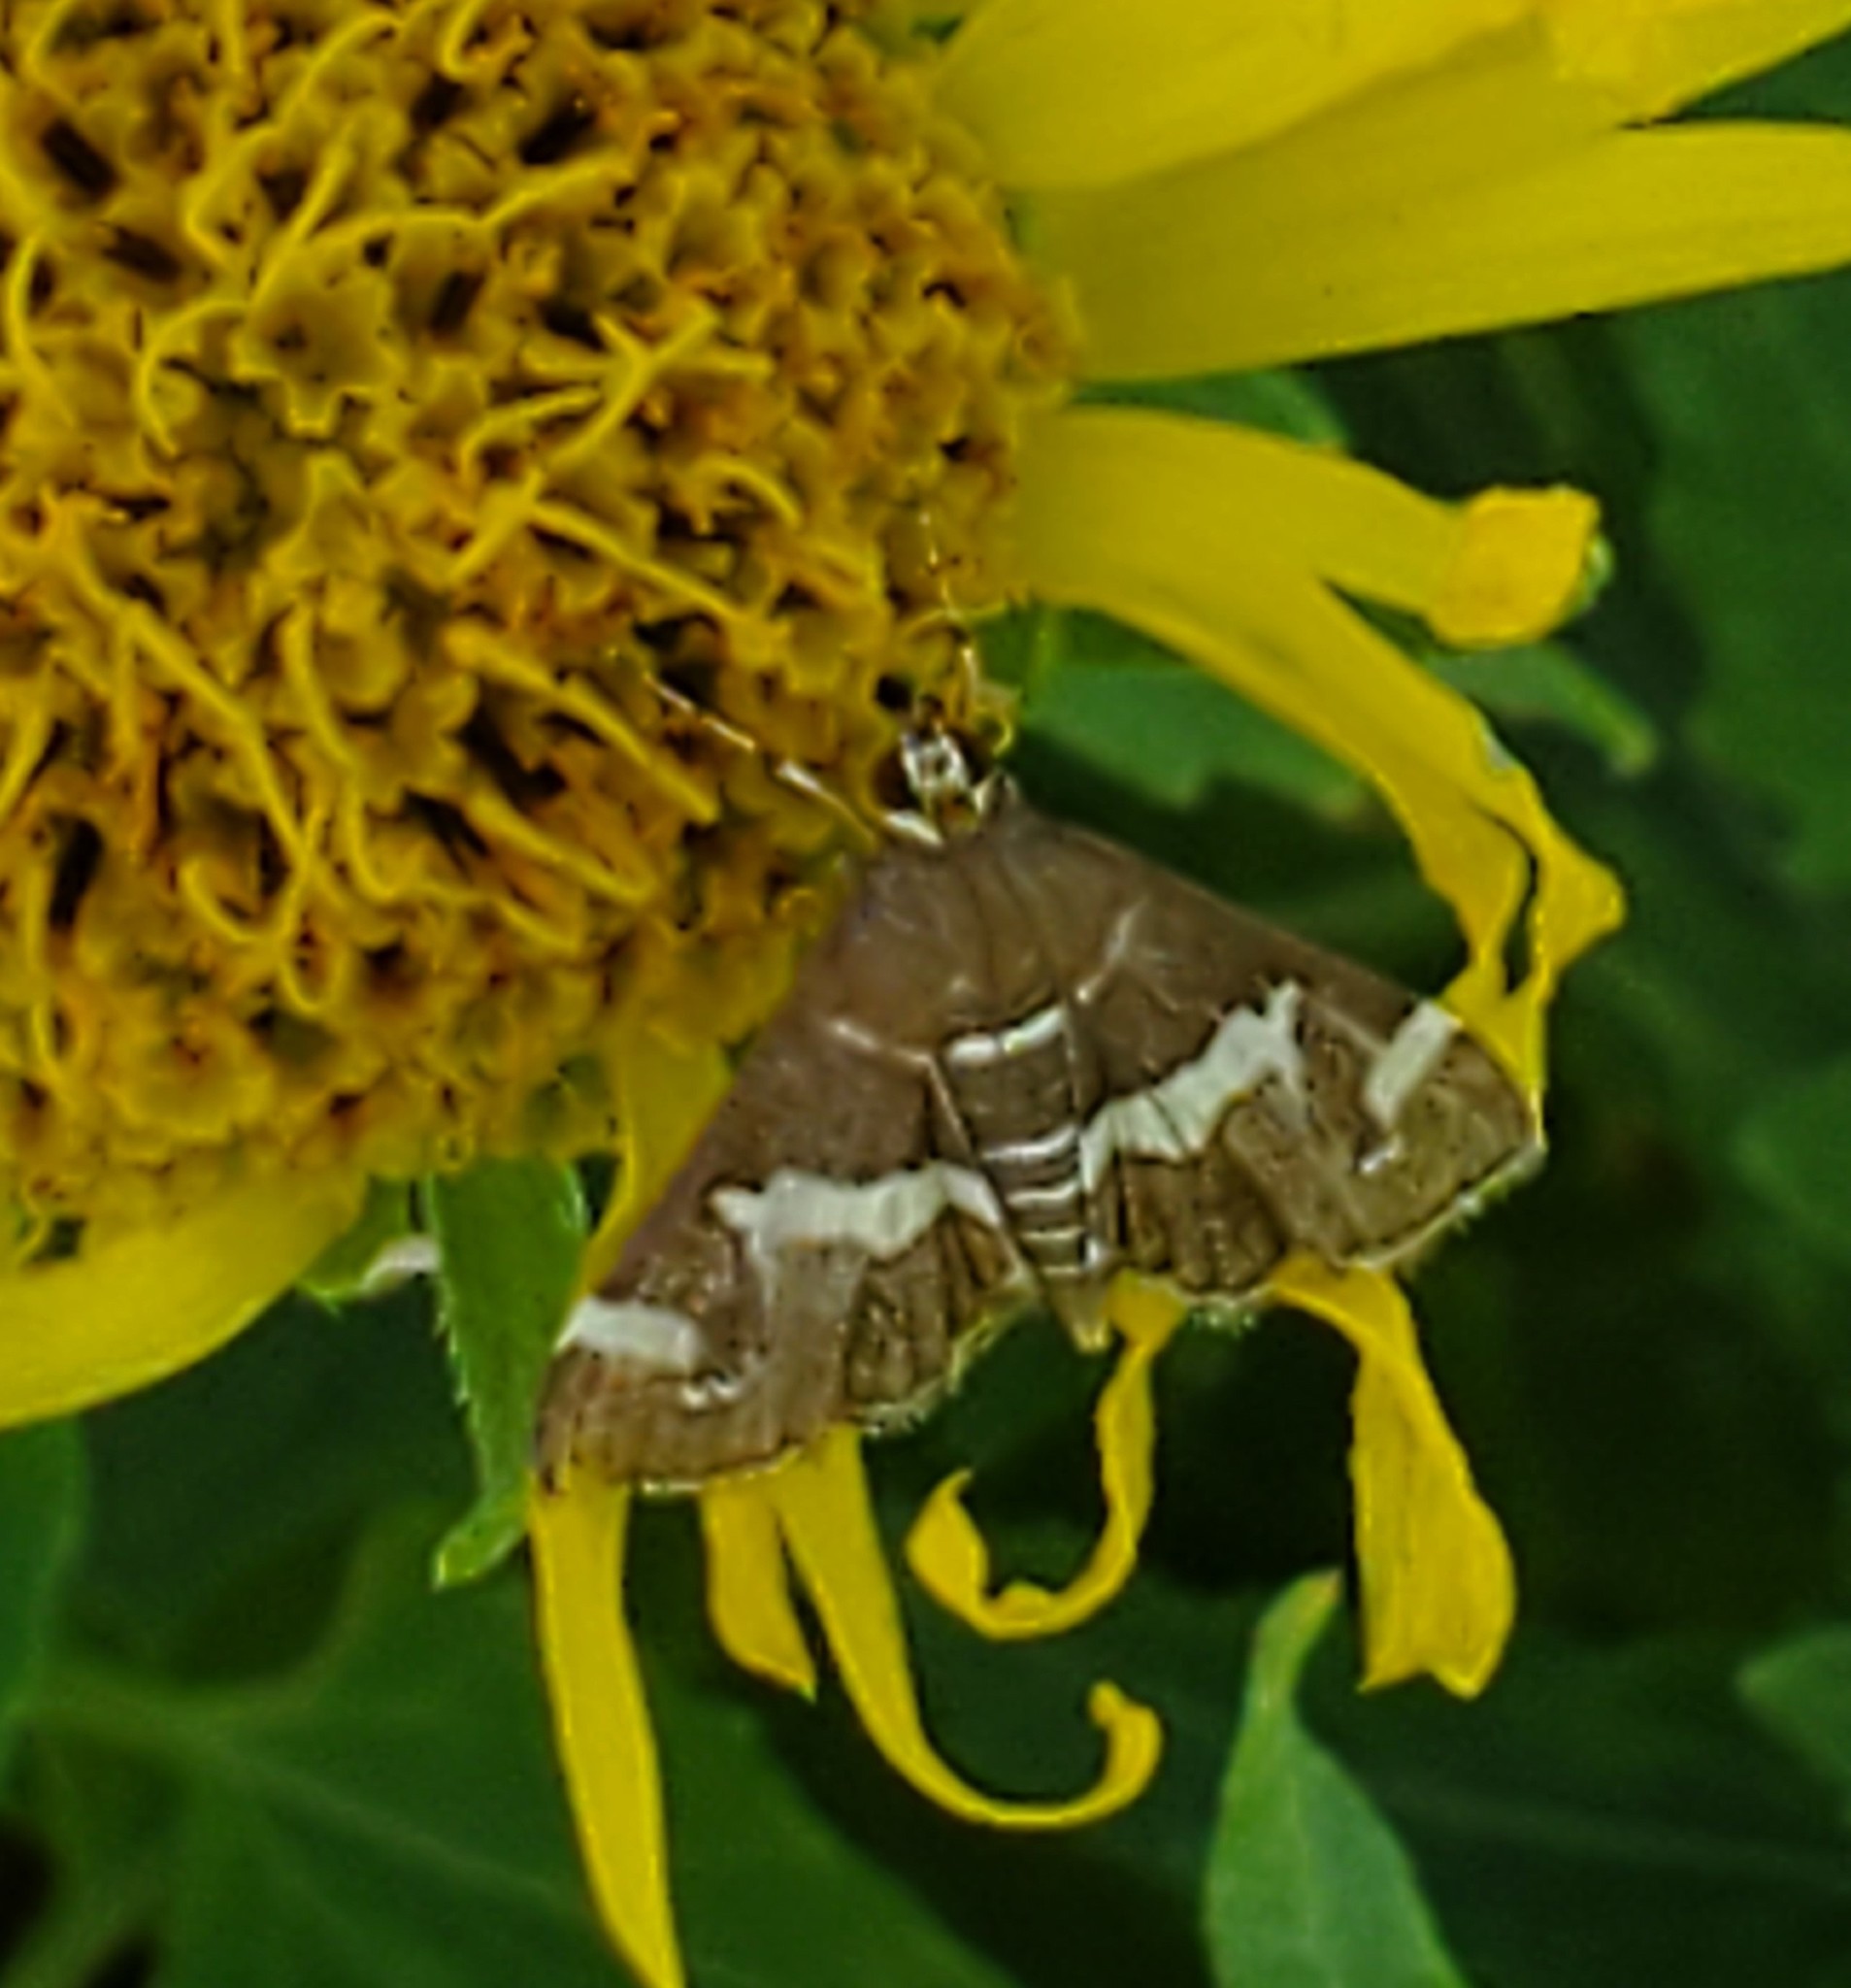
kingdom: Animalia
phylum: Arthropoda
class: Insecta
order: Lepidoptera
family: Crambidae
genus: Spoladea
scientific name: Spoladea recurvalis
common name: Beet webworm moth
